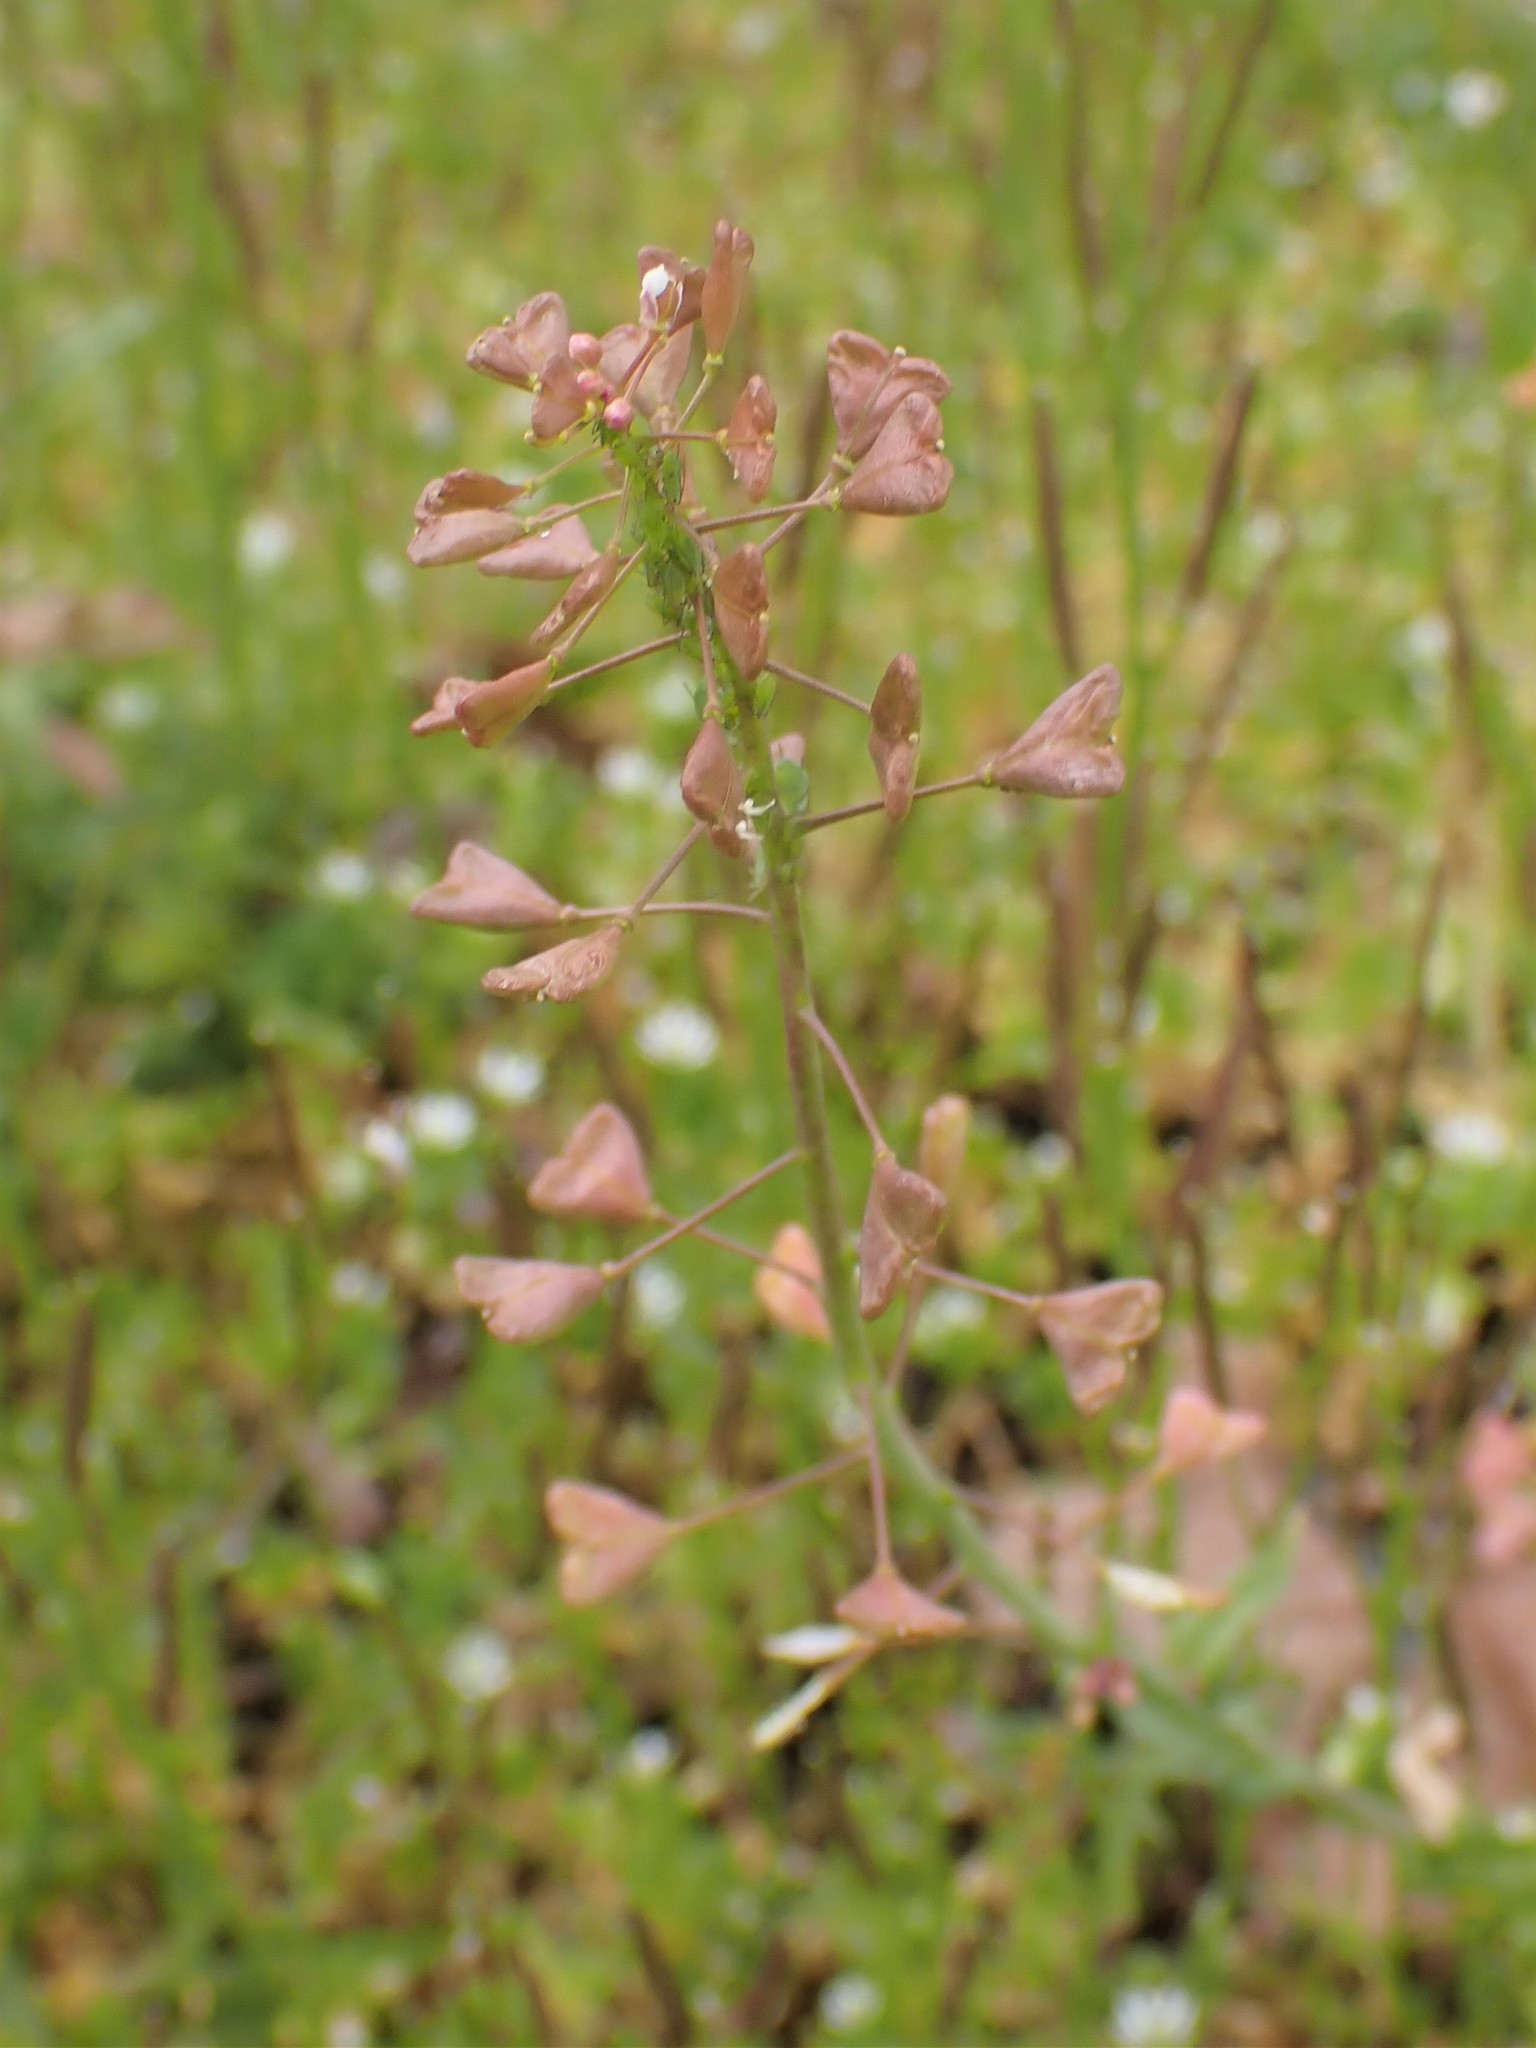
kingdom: Plantae
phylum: Tracheophyta
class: Magnoliopsida
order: Brassicales
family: Brassicaceae
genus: Capsella
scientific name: Capsella bursa-pastoris
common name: Shepherd's purse
